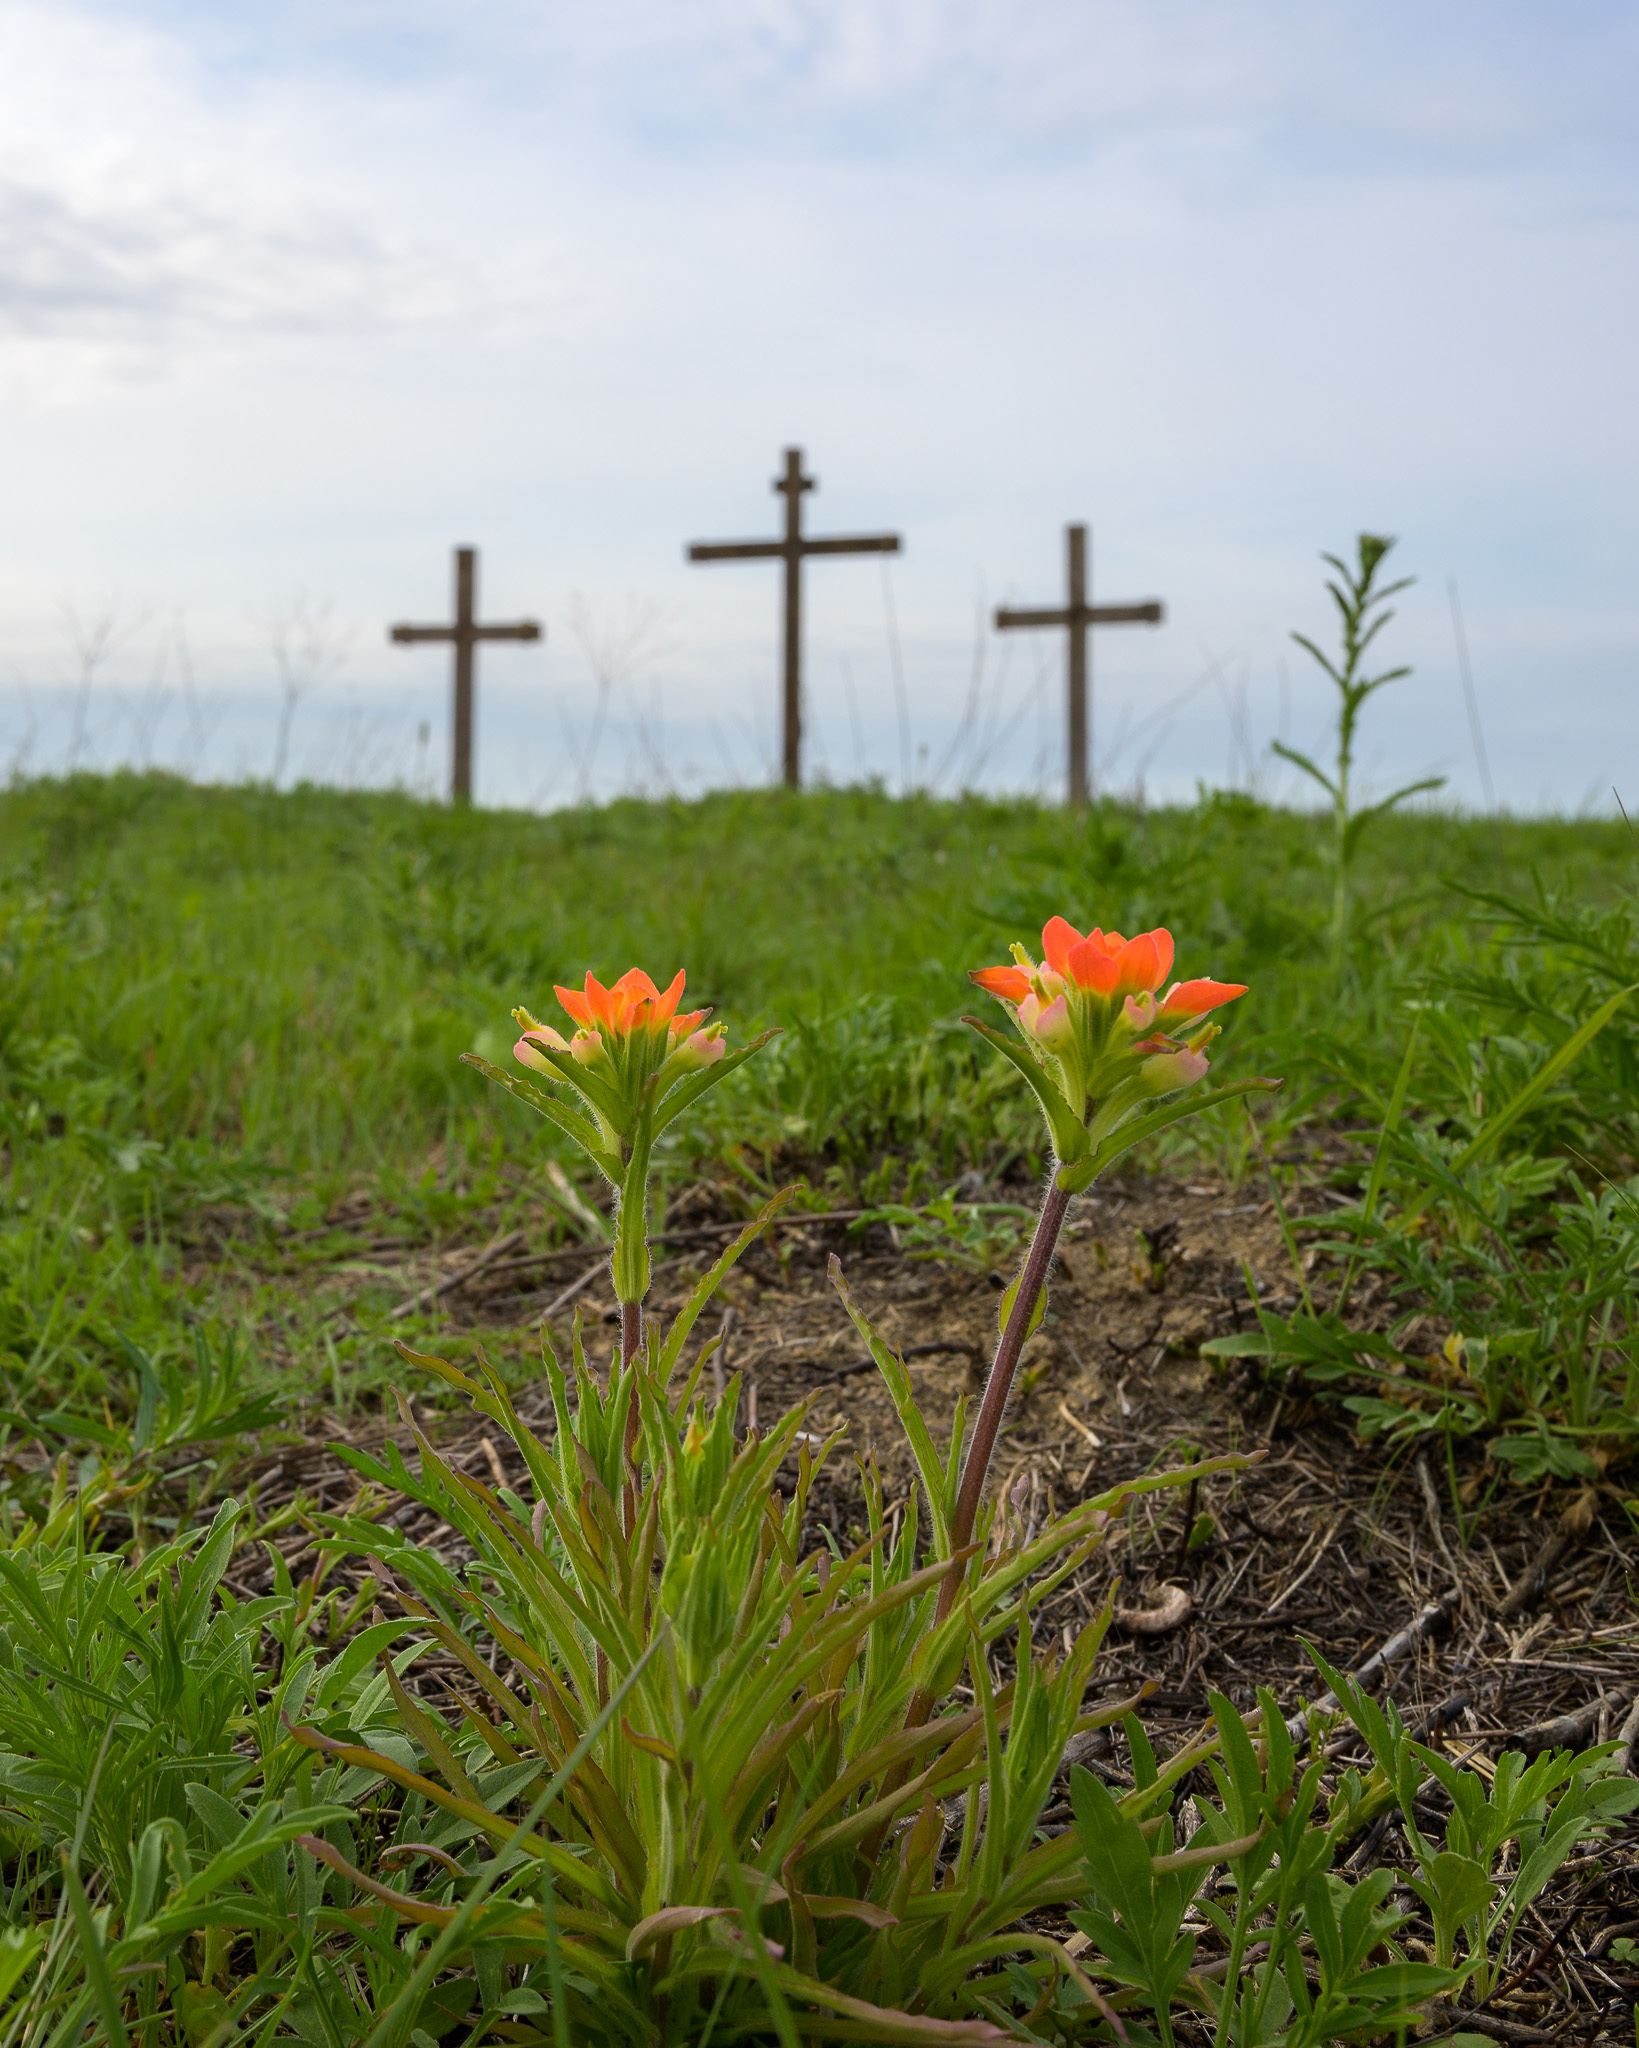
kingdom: Plantae
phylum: Tracheophyta
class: Magnoliopsida
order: Lamiales
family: Orobanchaceae
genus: Castilleja
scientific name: Castilleja indivisa
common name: Texas paintbrush
